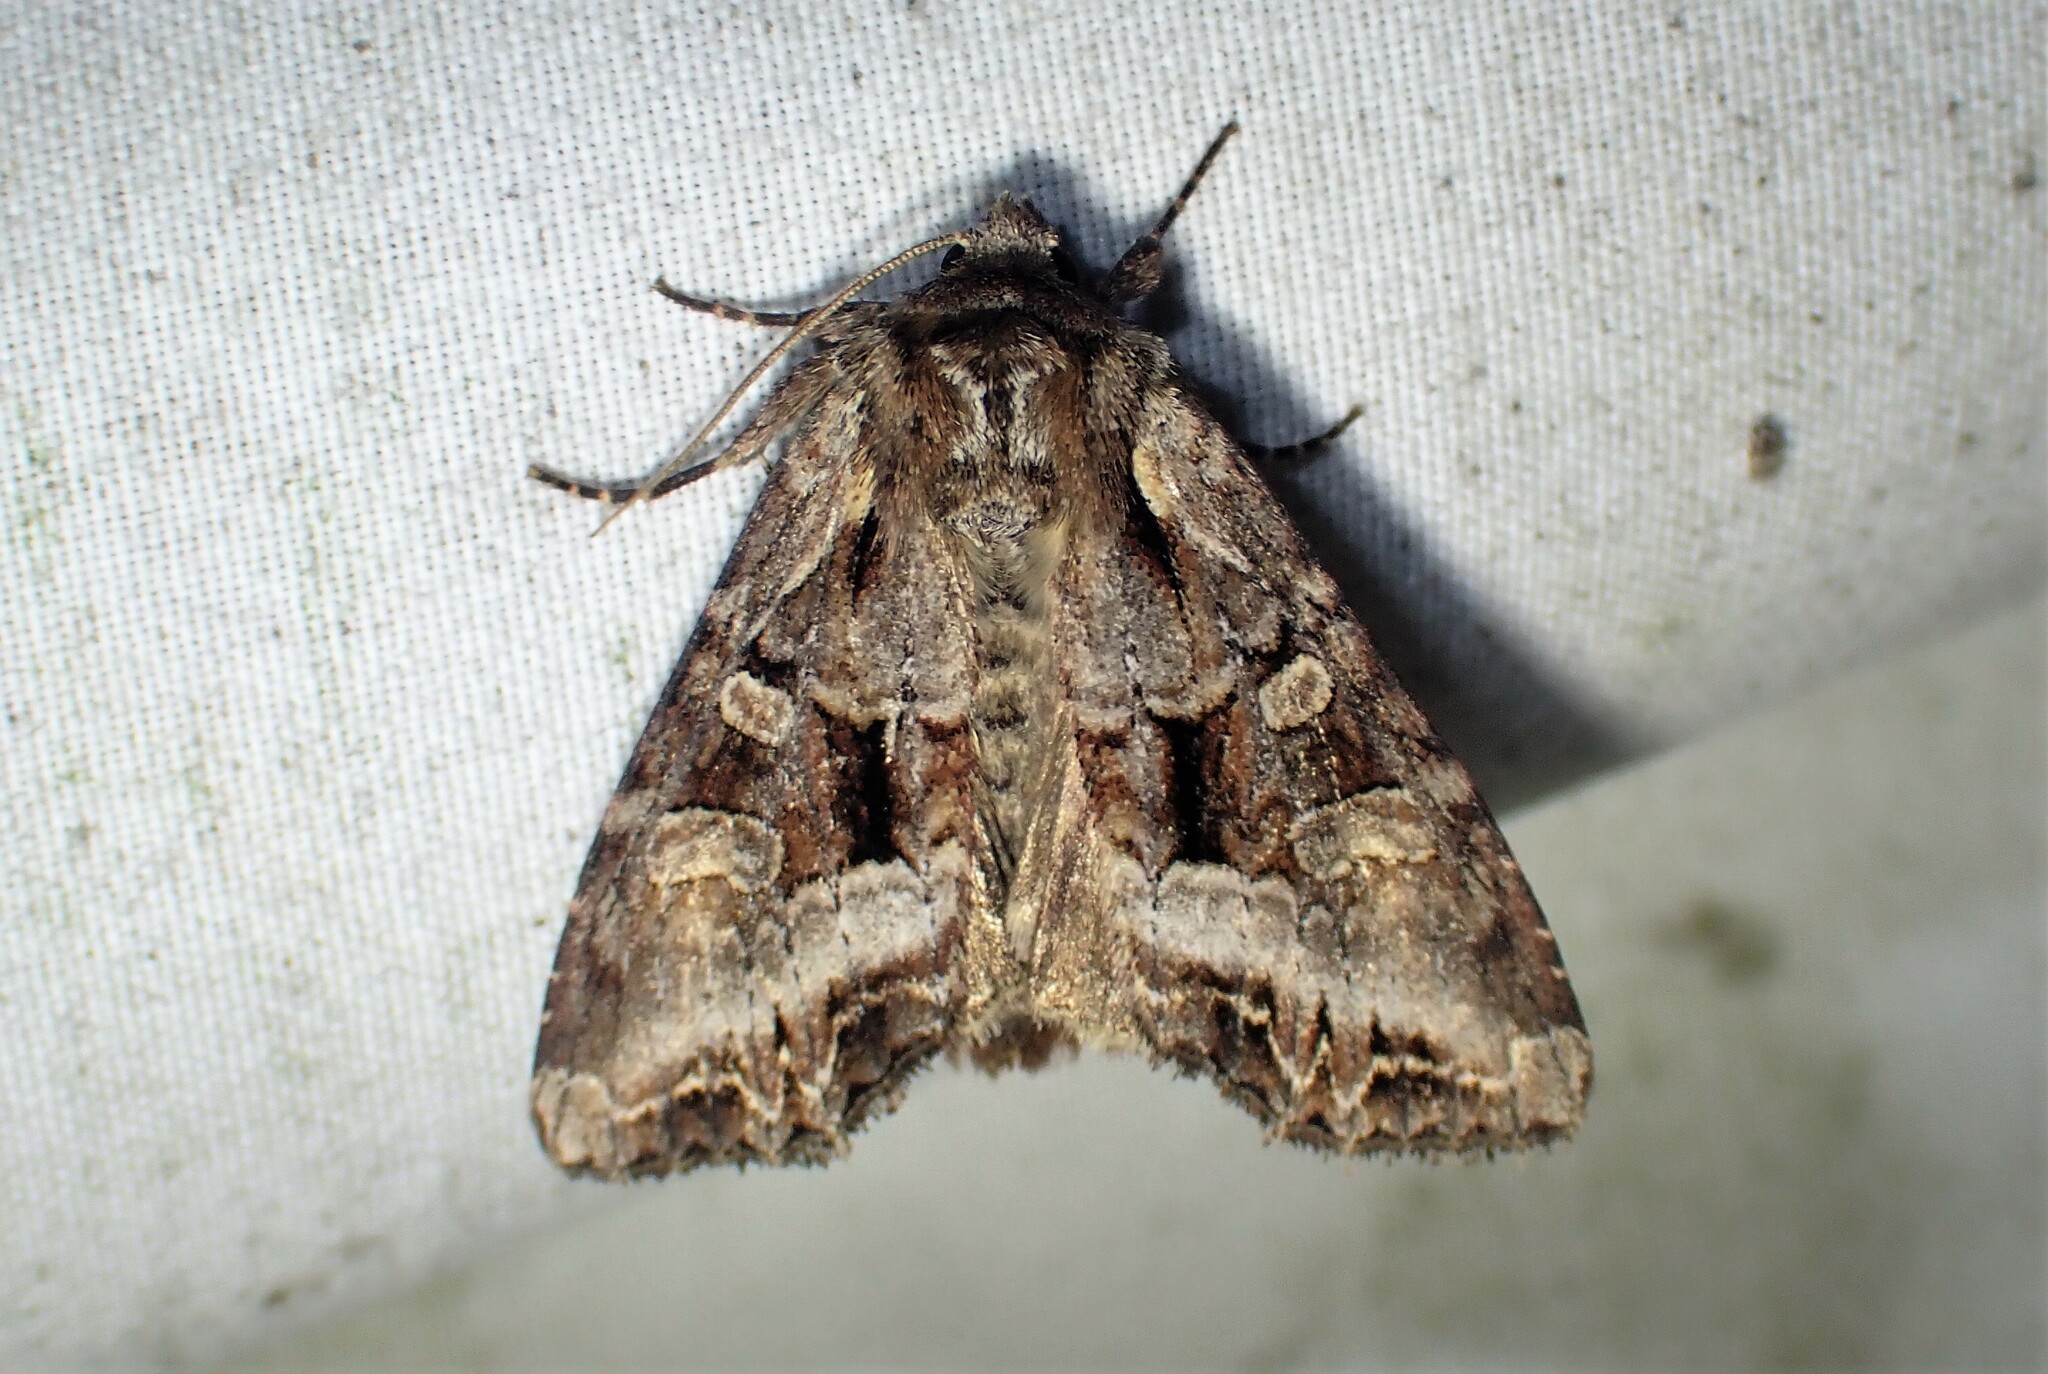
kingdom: Animalia
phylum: Arthropoda
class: Insecta
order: Lepidoptera
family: Noctuidae
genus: Lacanobia
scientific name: Lacanobia grandis
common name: Grand arches moth
